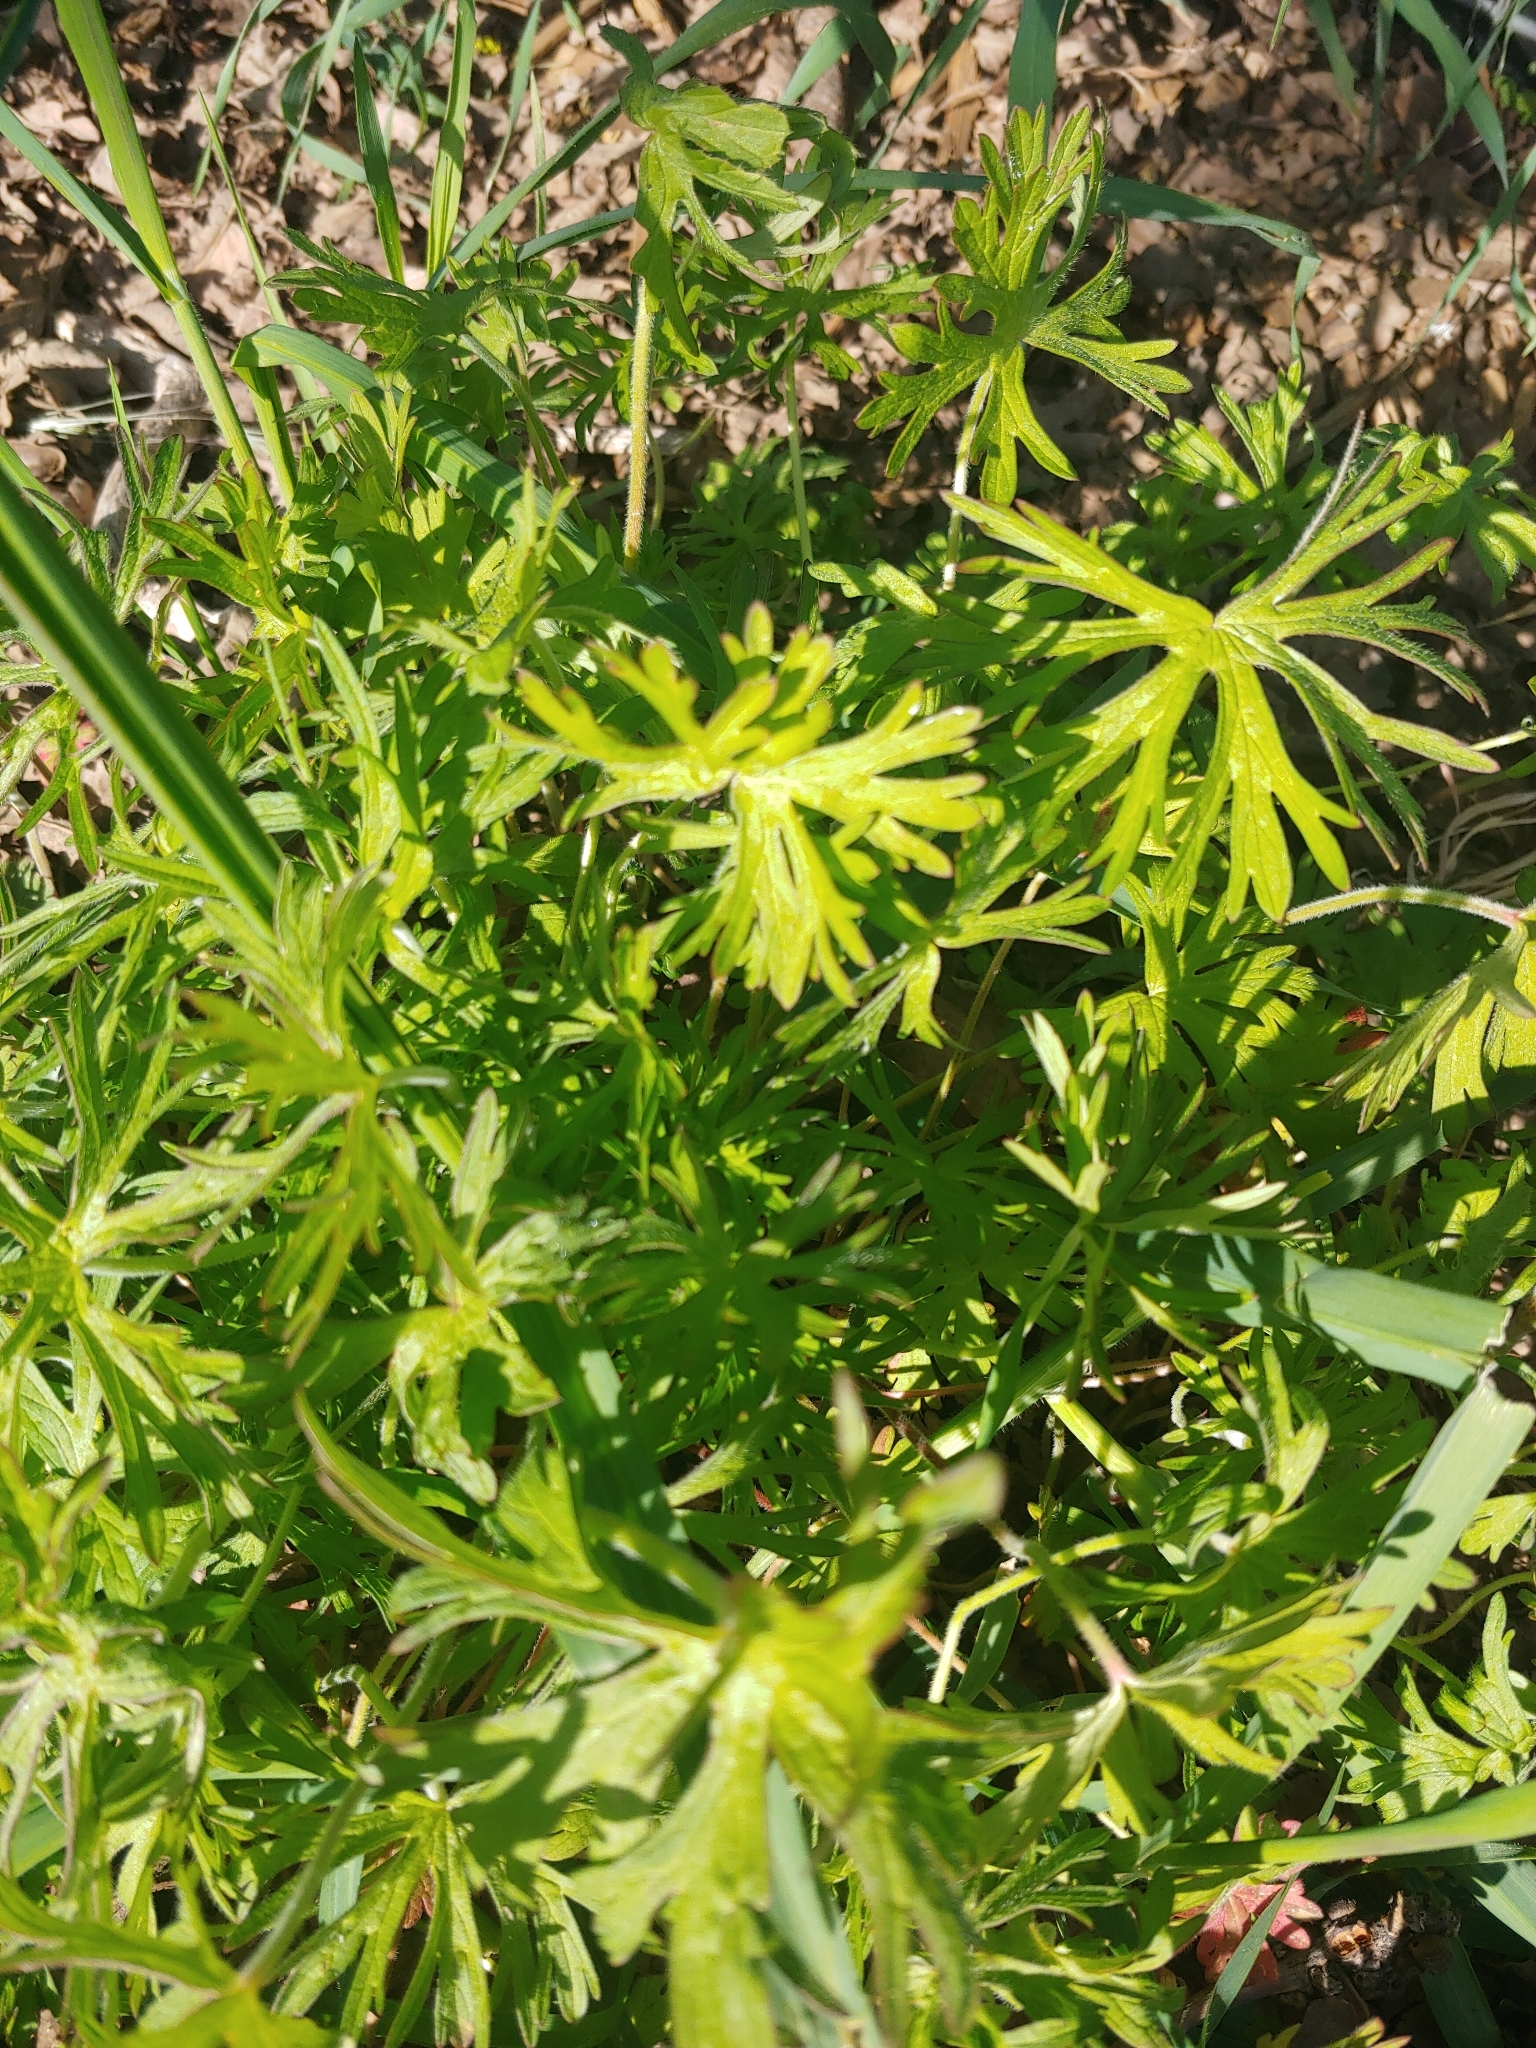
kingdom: Plantae
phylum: Tracheophyta
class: Magnoliopsida
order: Geraniales
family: Geraniaceae
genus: Geranium
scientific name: Geranium dissectum
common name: Cut-leaved crane's-bill
